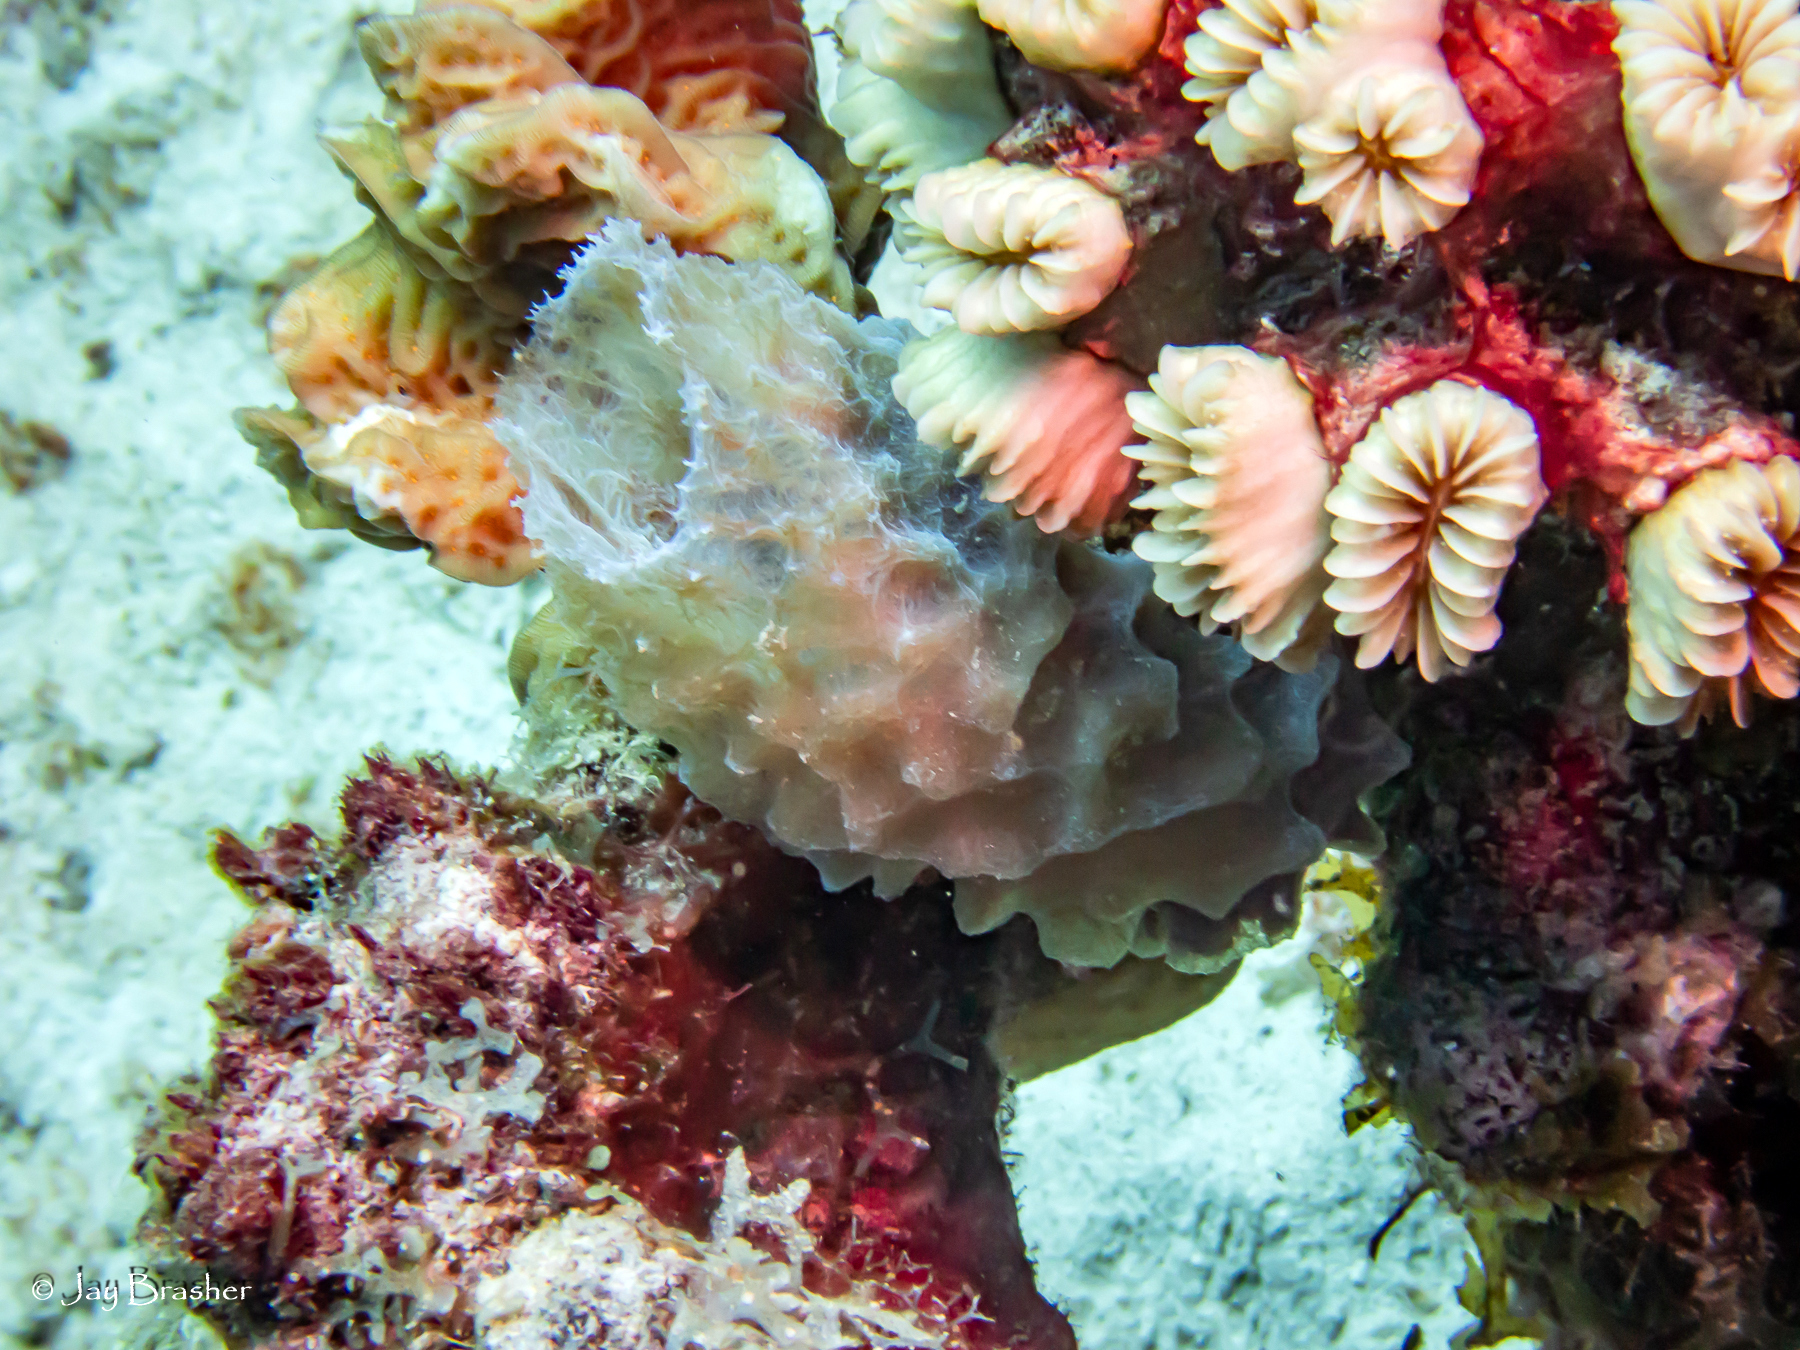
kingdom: Animalia
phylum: Porifera
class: Demospongiae
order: Haplosclerida
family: Callyspongiidae
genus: Callyspongia
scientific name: Callyspongia plicifera
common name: Azure vase sponge
